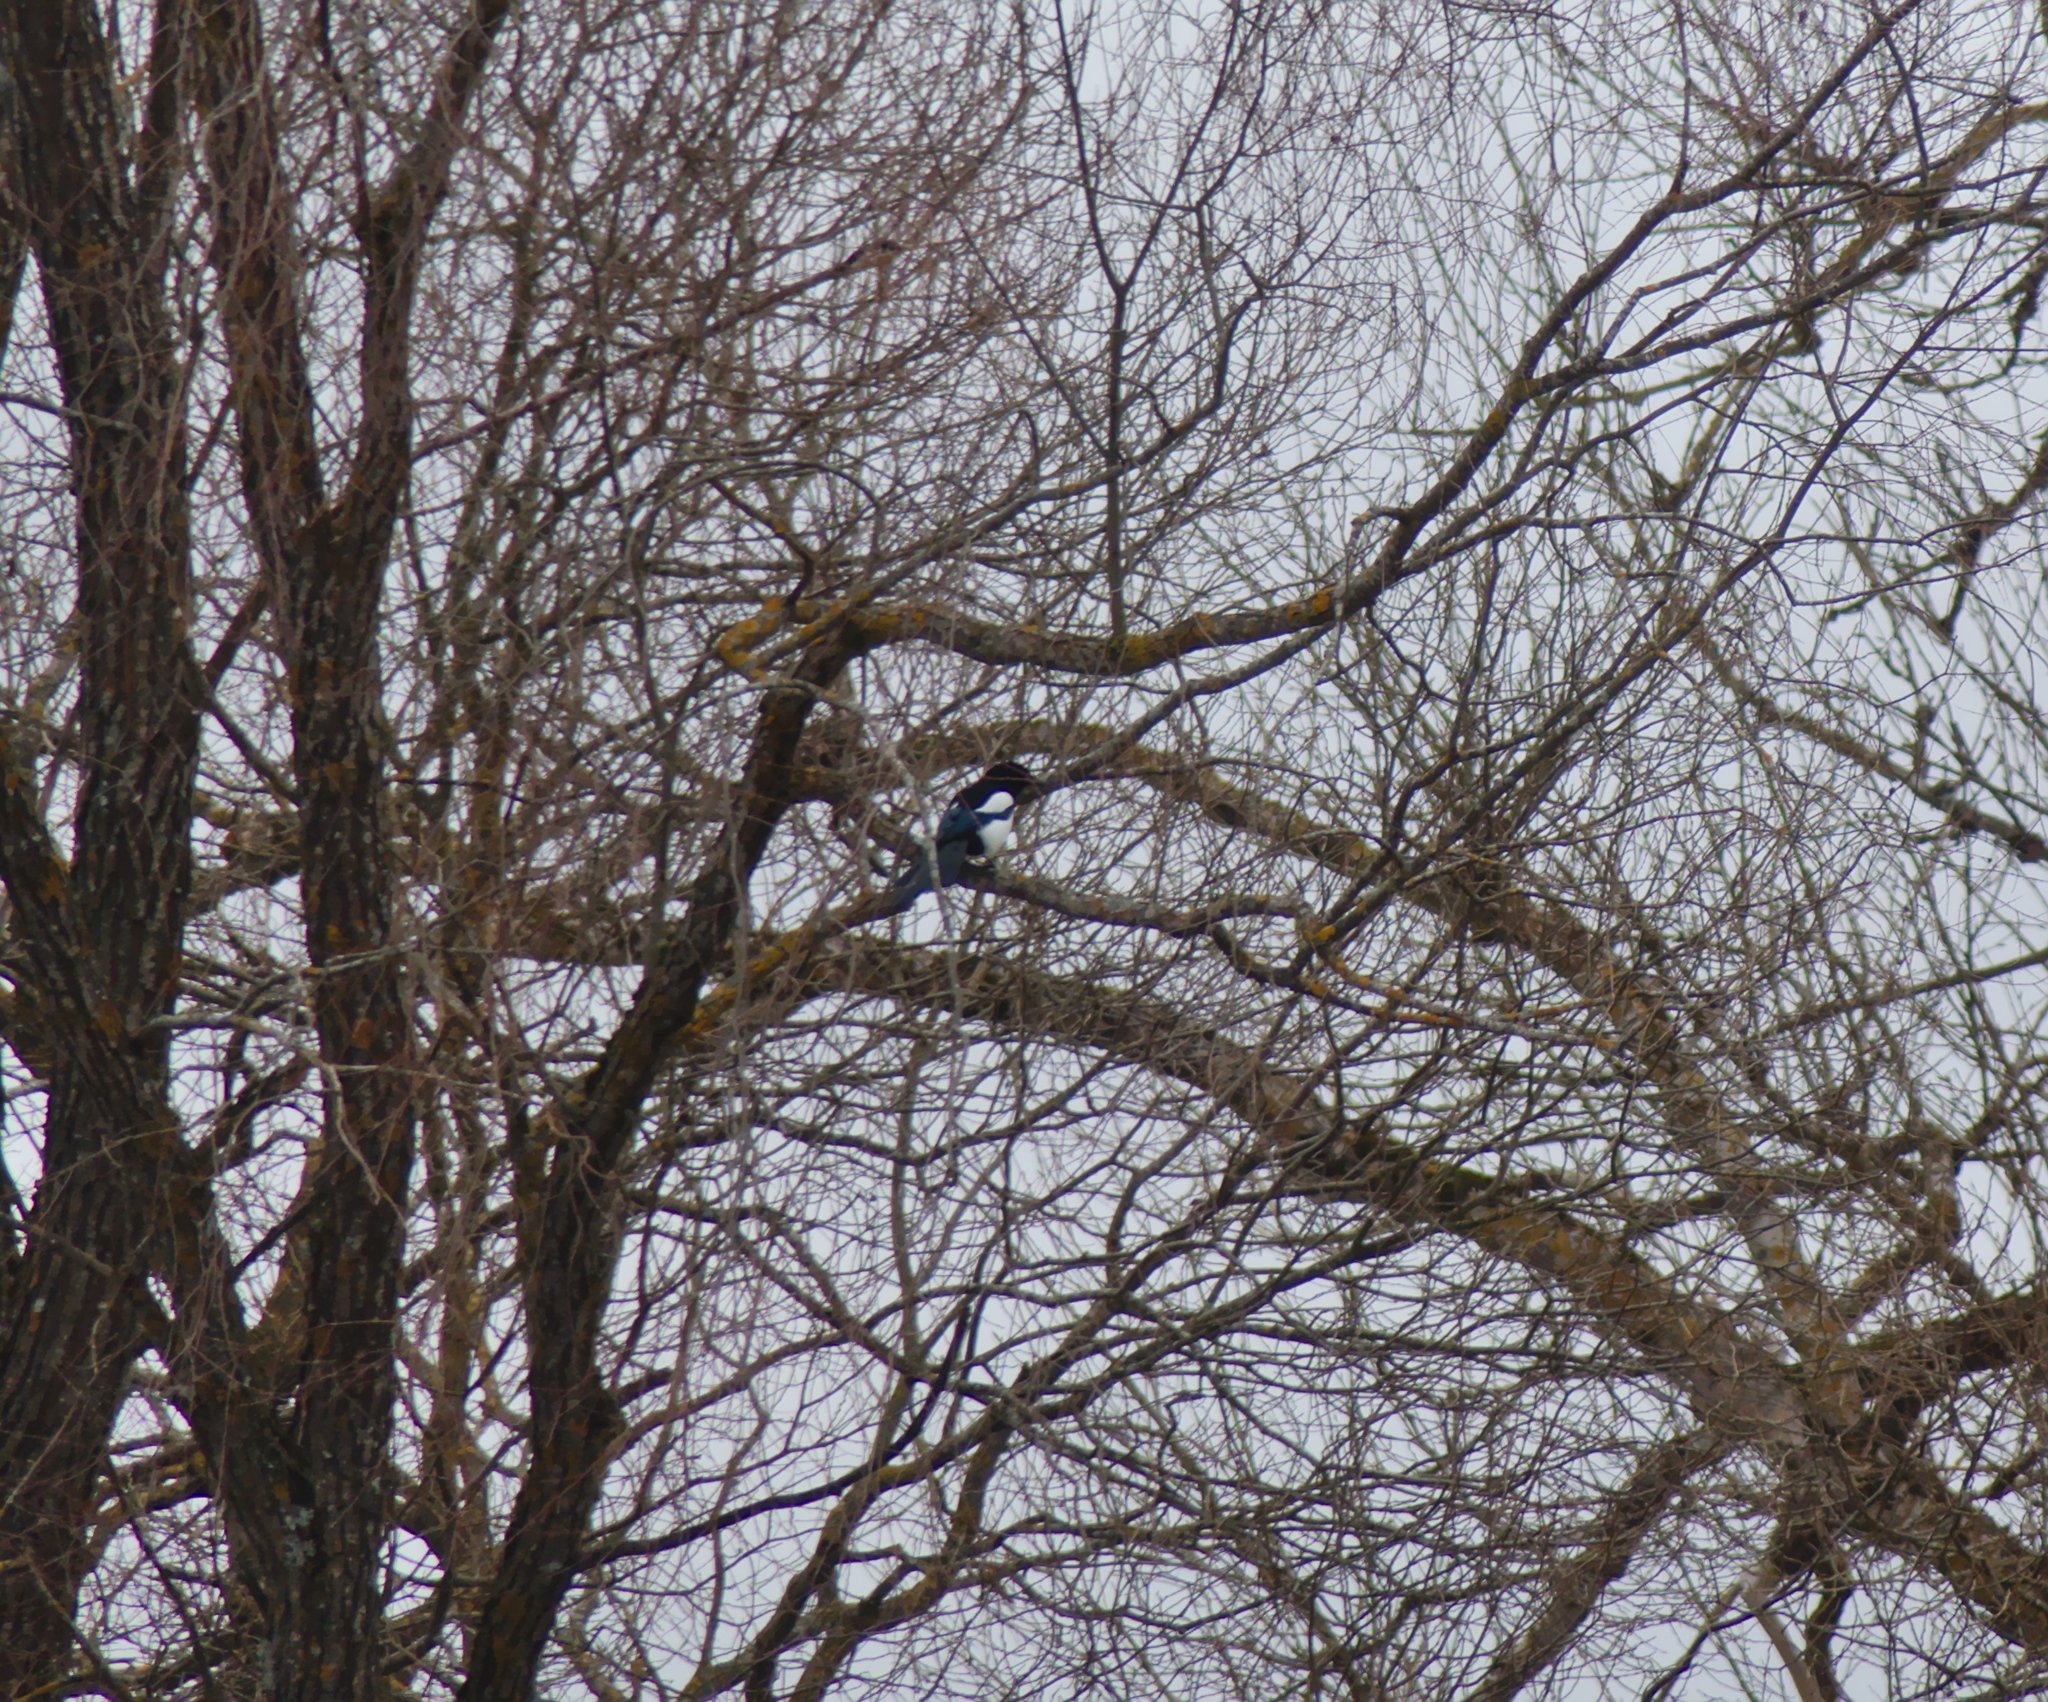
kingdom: Animalia
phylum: Chordata
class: Aves
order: Passeriformes
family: Corvidae
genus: Pica
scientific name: Pica pica
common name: Eurasian magpie
